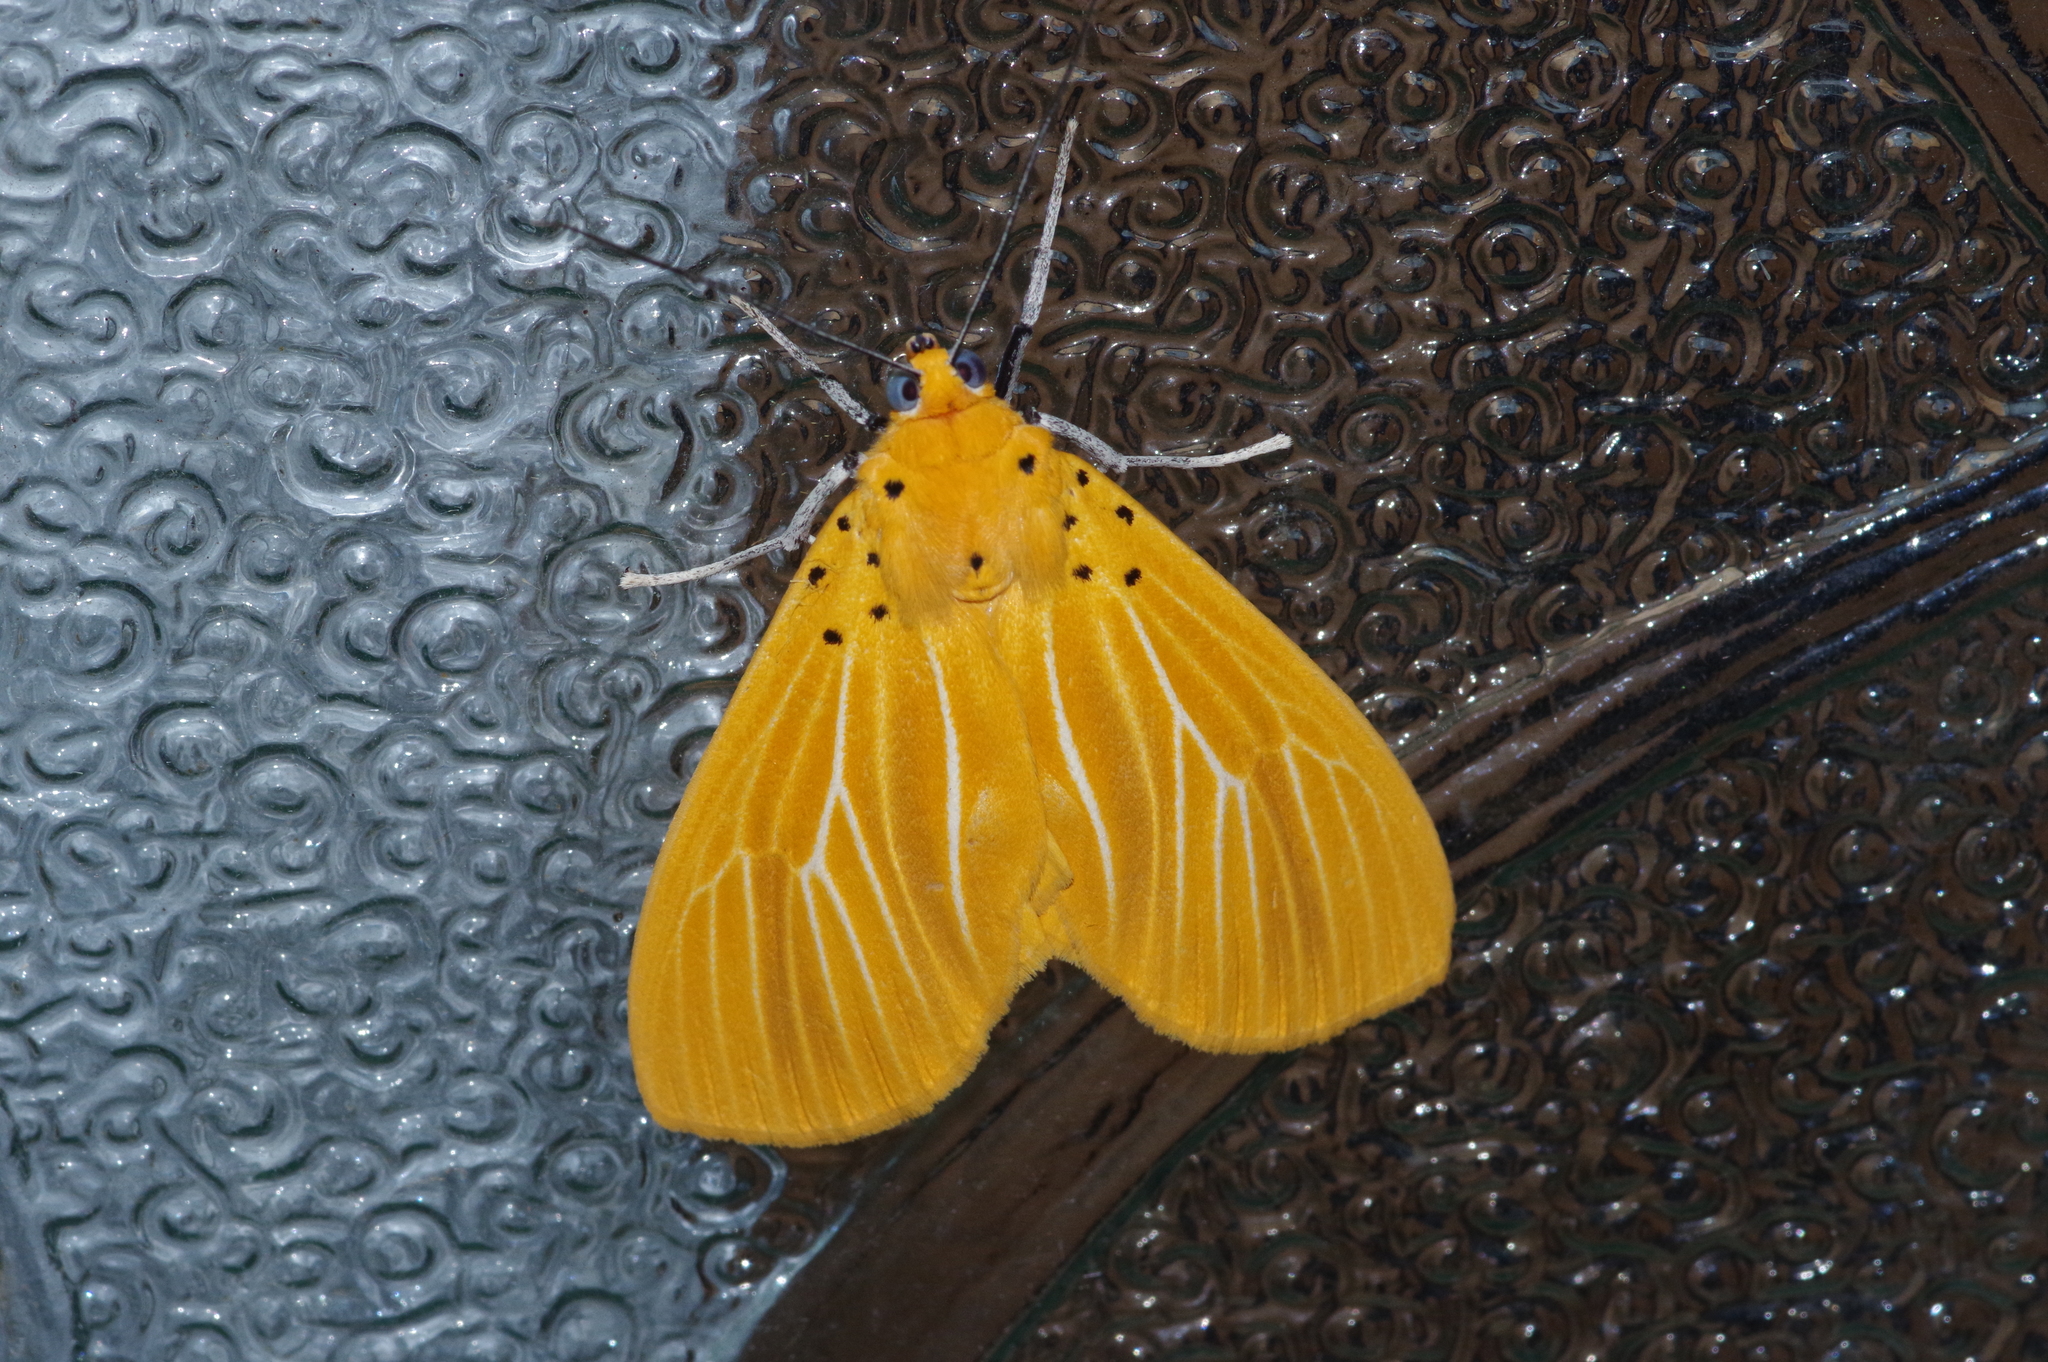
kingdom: Animalia
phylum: Arthropoda
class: Insecta
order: Lepidoptera
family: Erebidae
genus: Asota
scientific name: Asota egens
